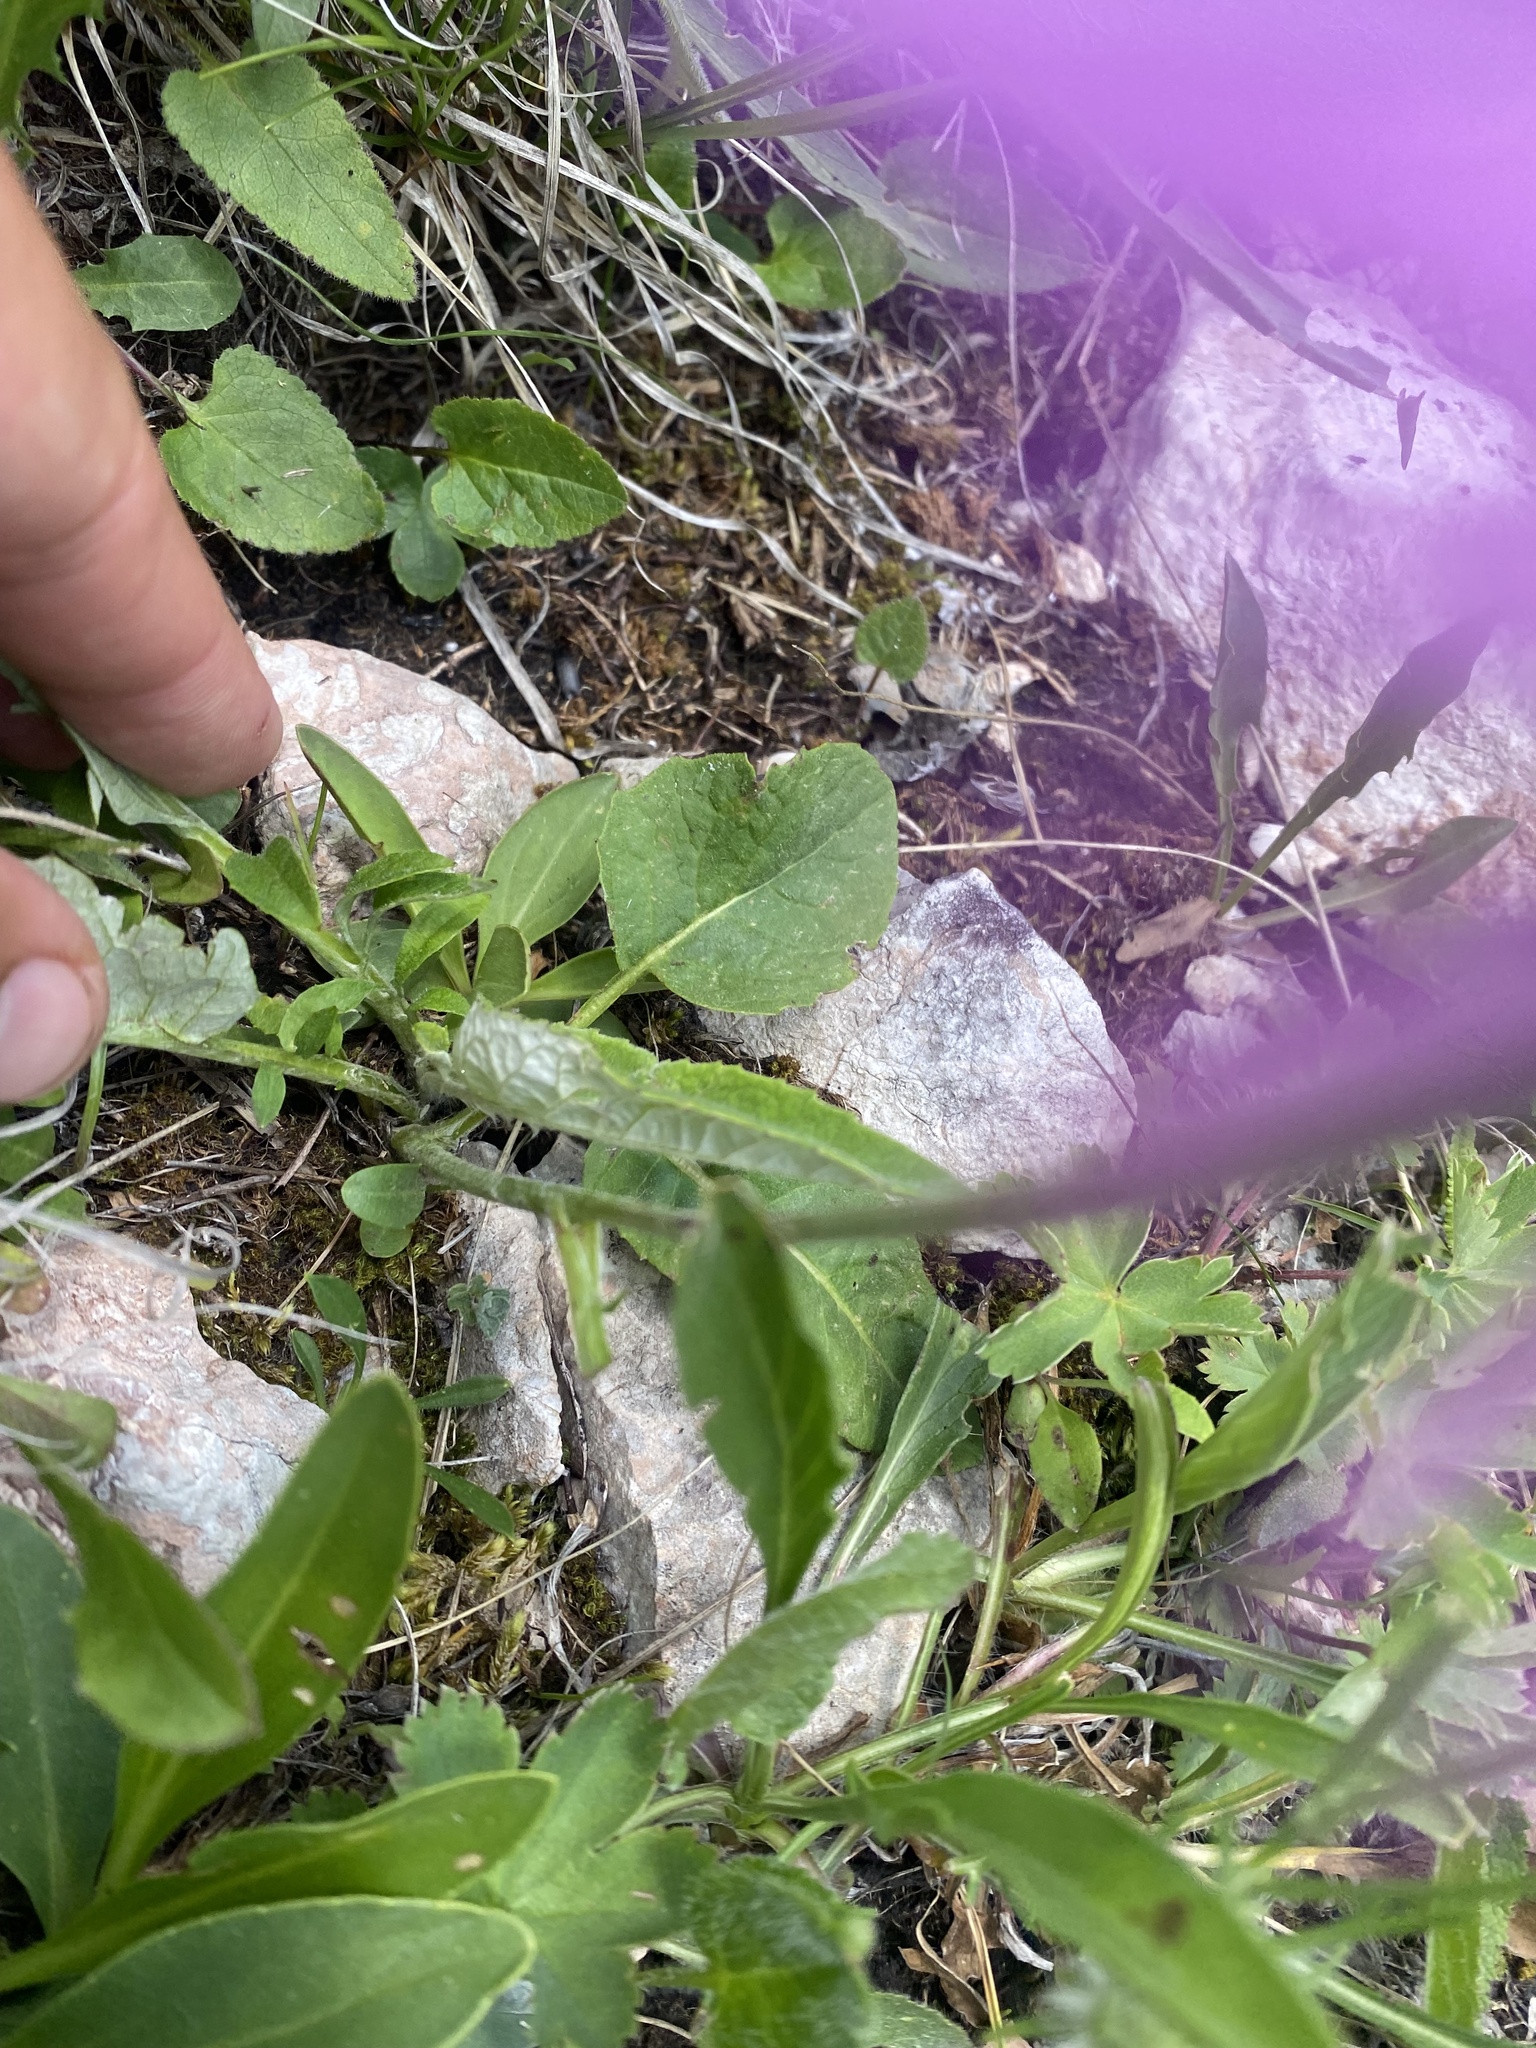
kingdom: Plantae
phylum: Tracheophyta
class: Magnoliopsida
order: Asterales
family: Asteraceae
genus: Psephellus
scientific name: Psephellus dealbatus
